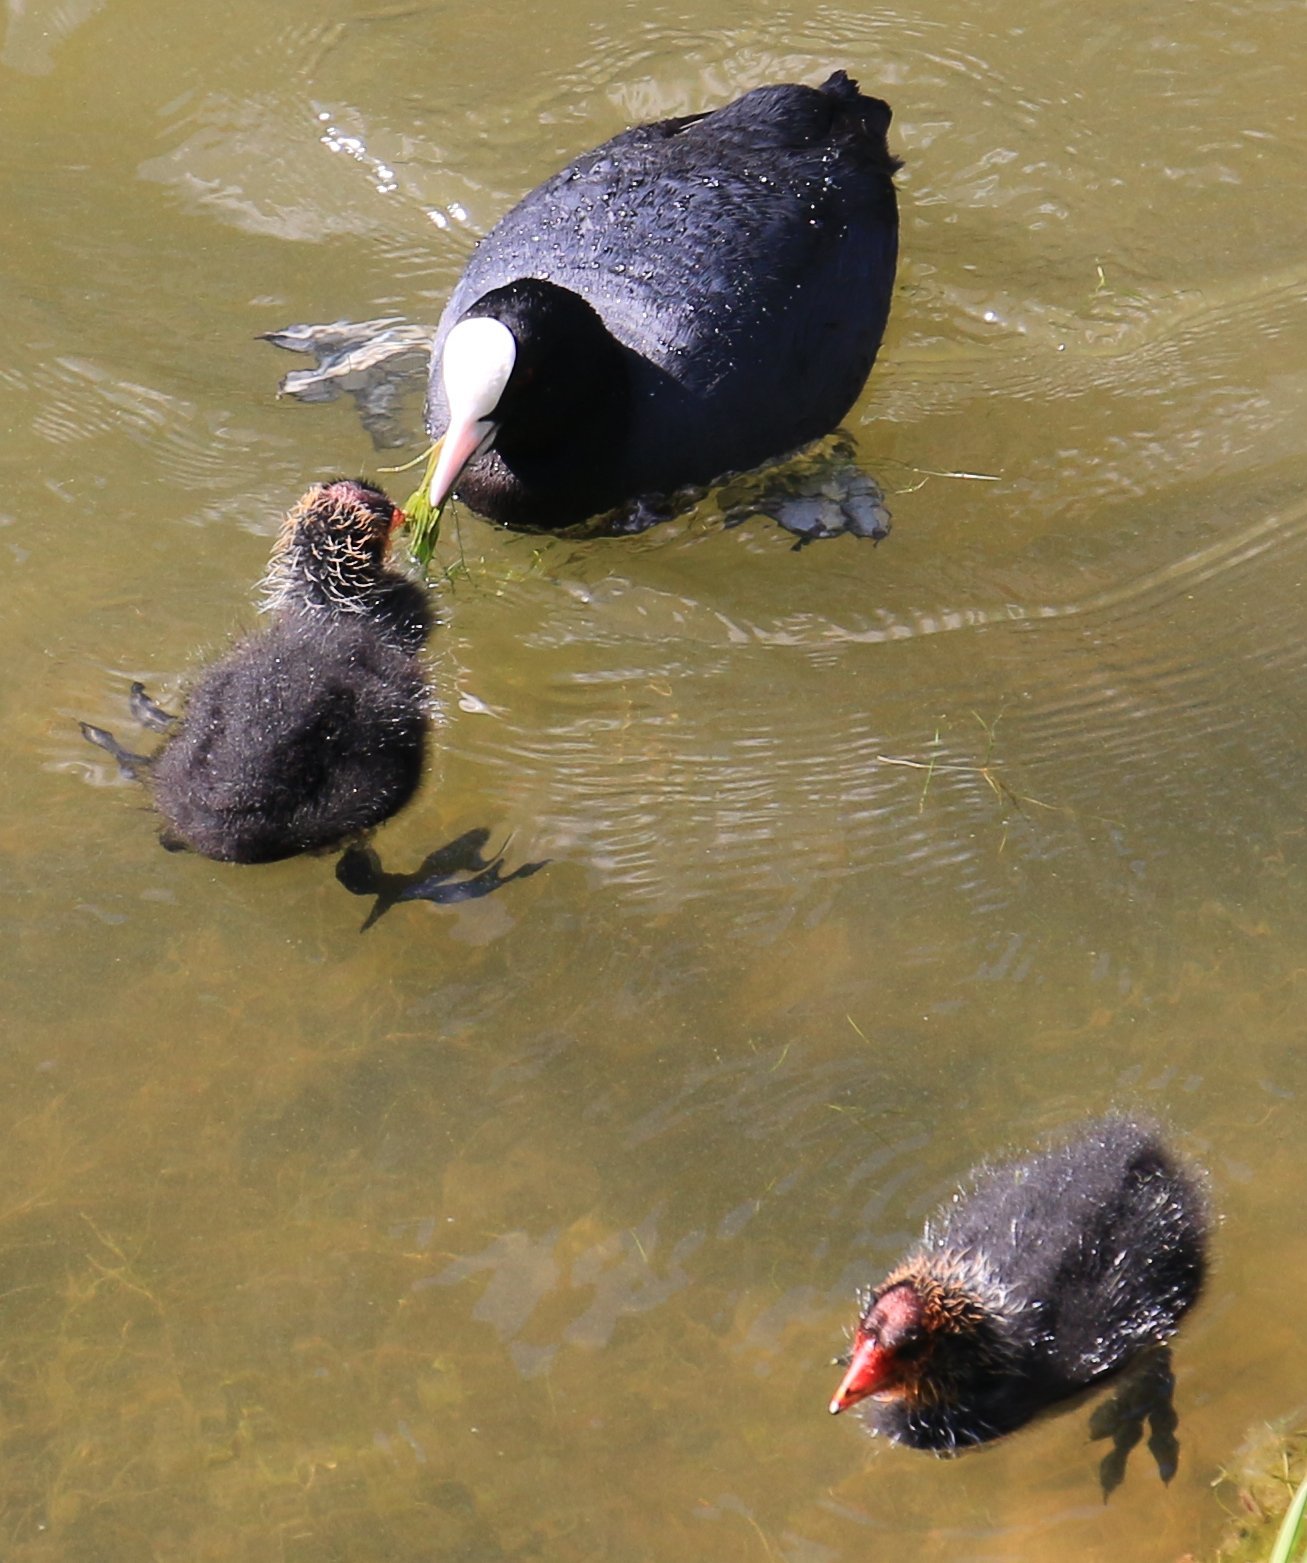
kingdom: Animalia
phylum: Chordata
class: Aves
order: Gruiformes
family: Rallidae
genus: Fulica
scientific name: Fulica atra
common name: Eurasian coot
